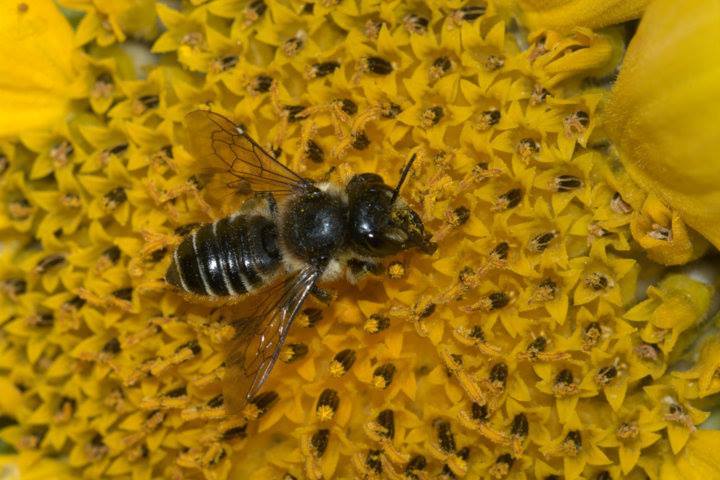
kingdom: Animalia
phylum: Arthropoda
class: Insecta
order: Hymenoptera
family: Megachilidae
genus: Megachile
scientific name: Megachile inermis
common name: Unarmed leafcutter bee
